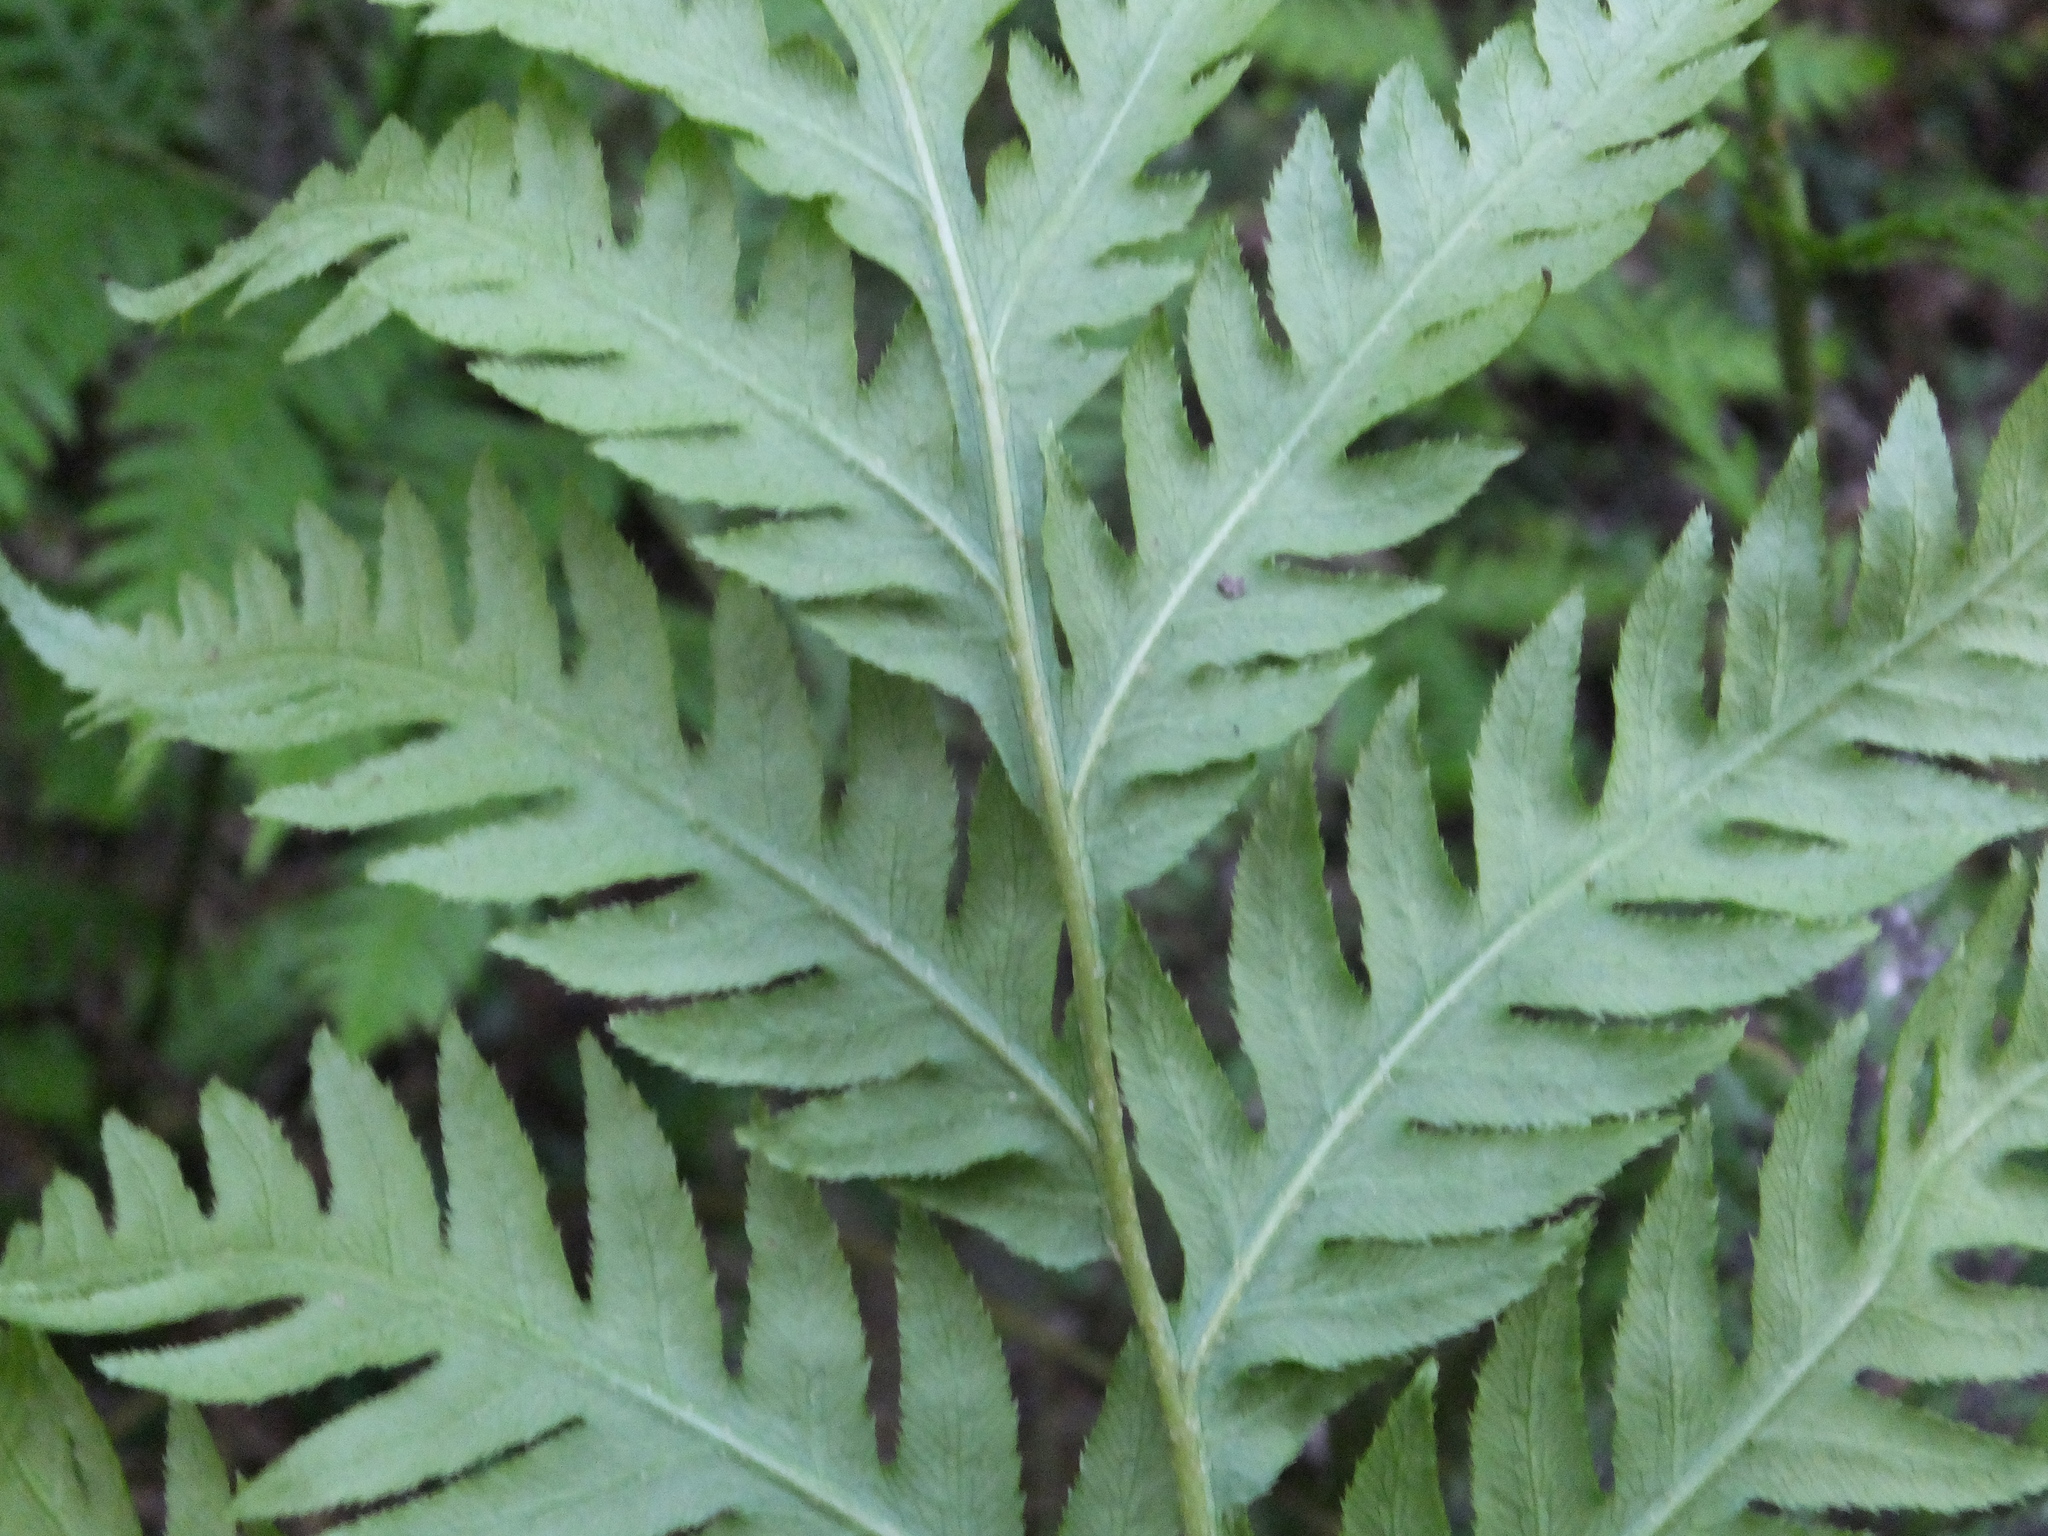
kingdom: Plantae
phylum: Tracheophyta
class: Polypodiopsida
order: Polypodiales
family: Blechnaceae
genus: Woodwardia
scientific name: Woodwardia fimbriata
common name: Giant chain fern
